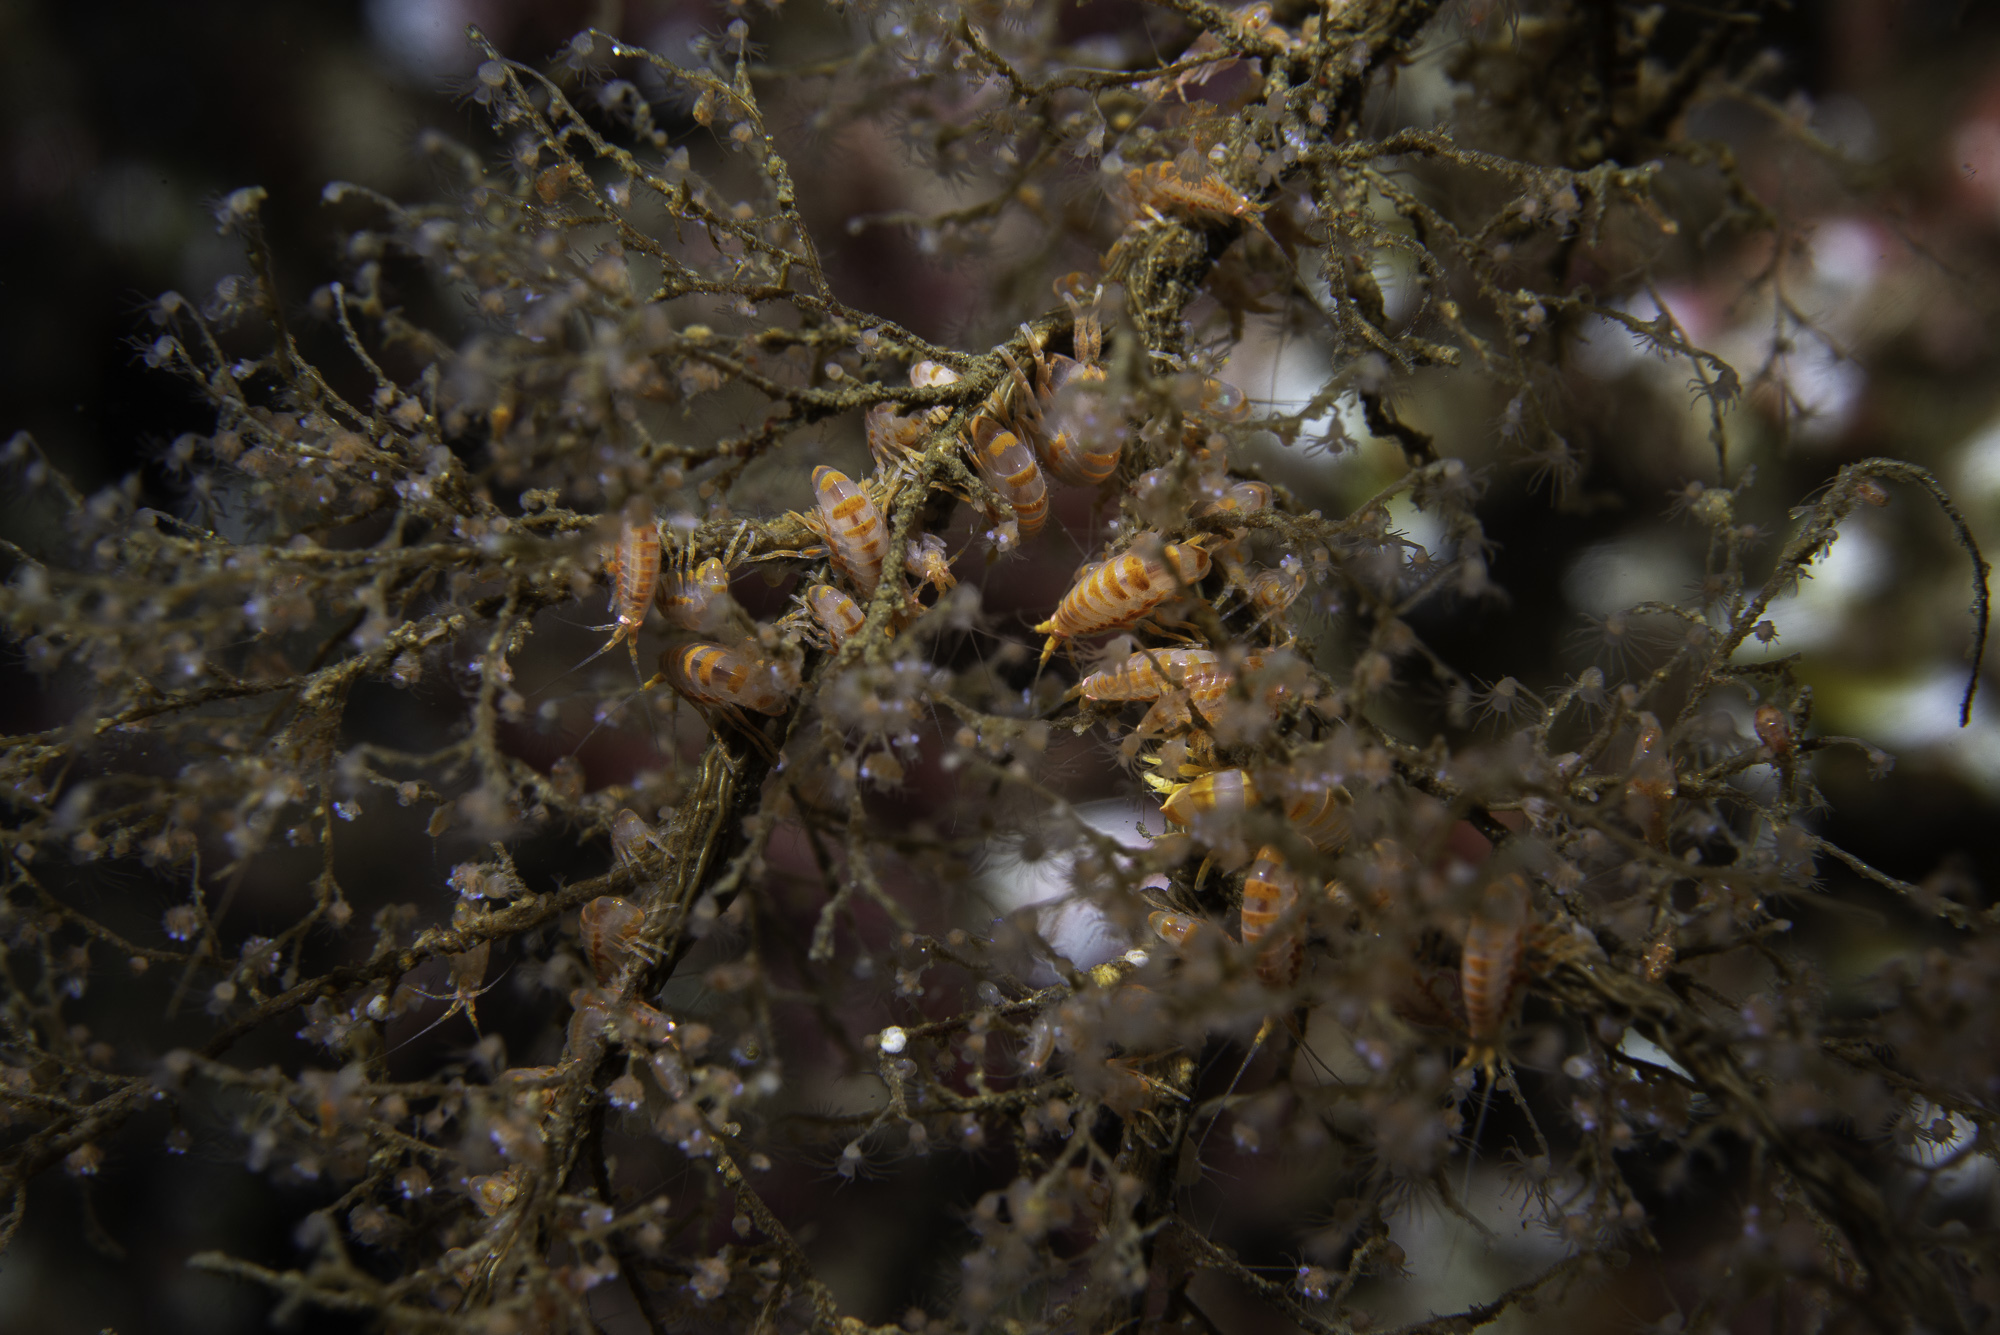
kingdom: Animalia
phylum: Arthropoda
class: Malacostraca
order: Amphipoda
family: Pleustidae
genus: Stenopleustes
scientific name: Stenopleustes latipes
